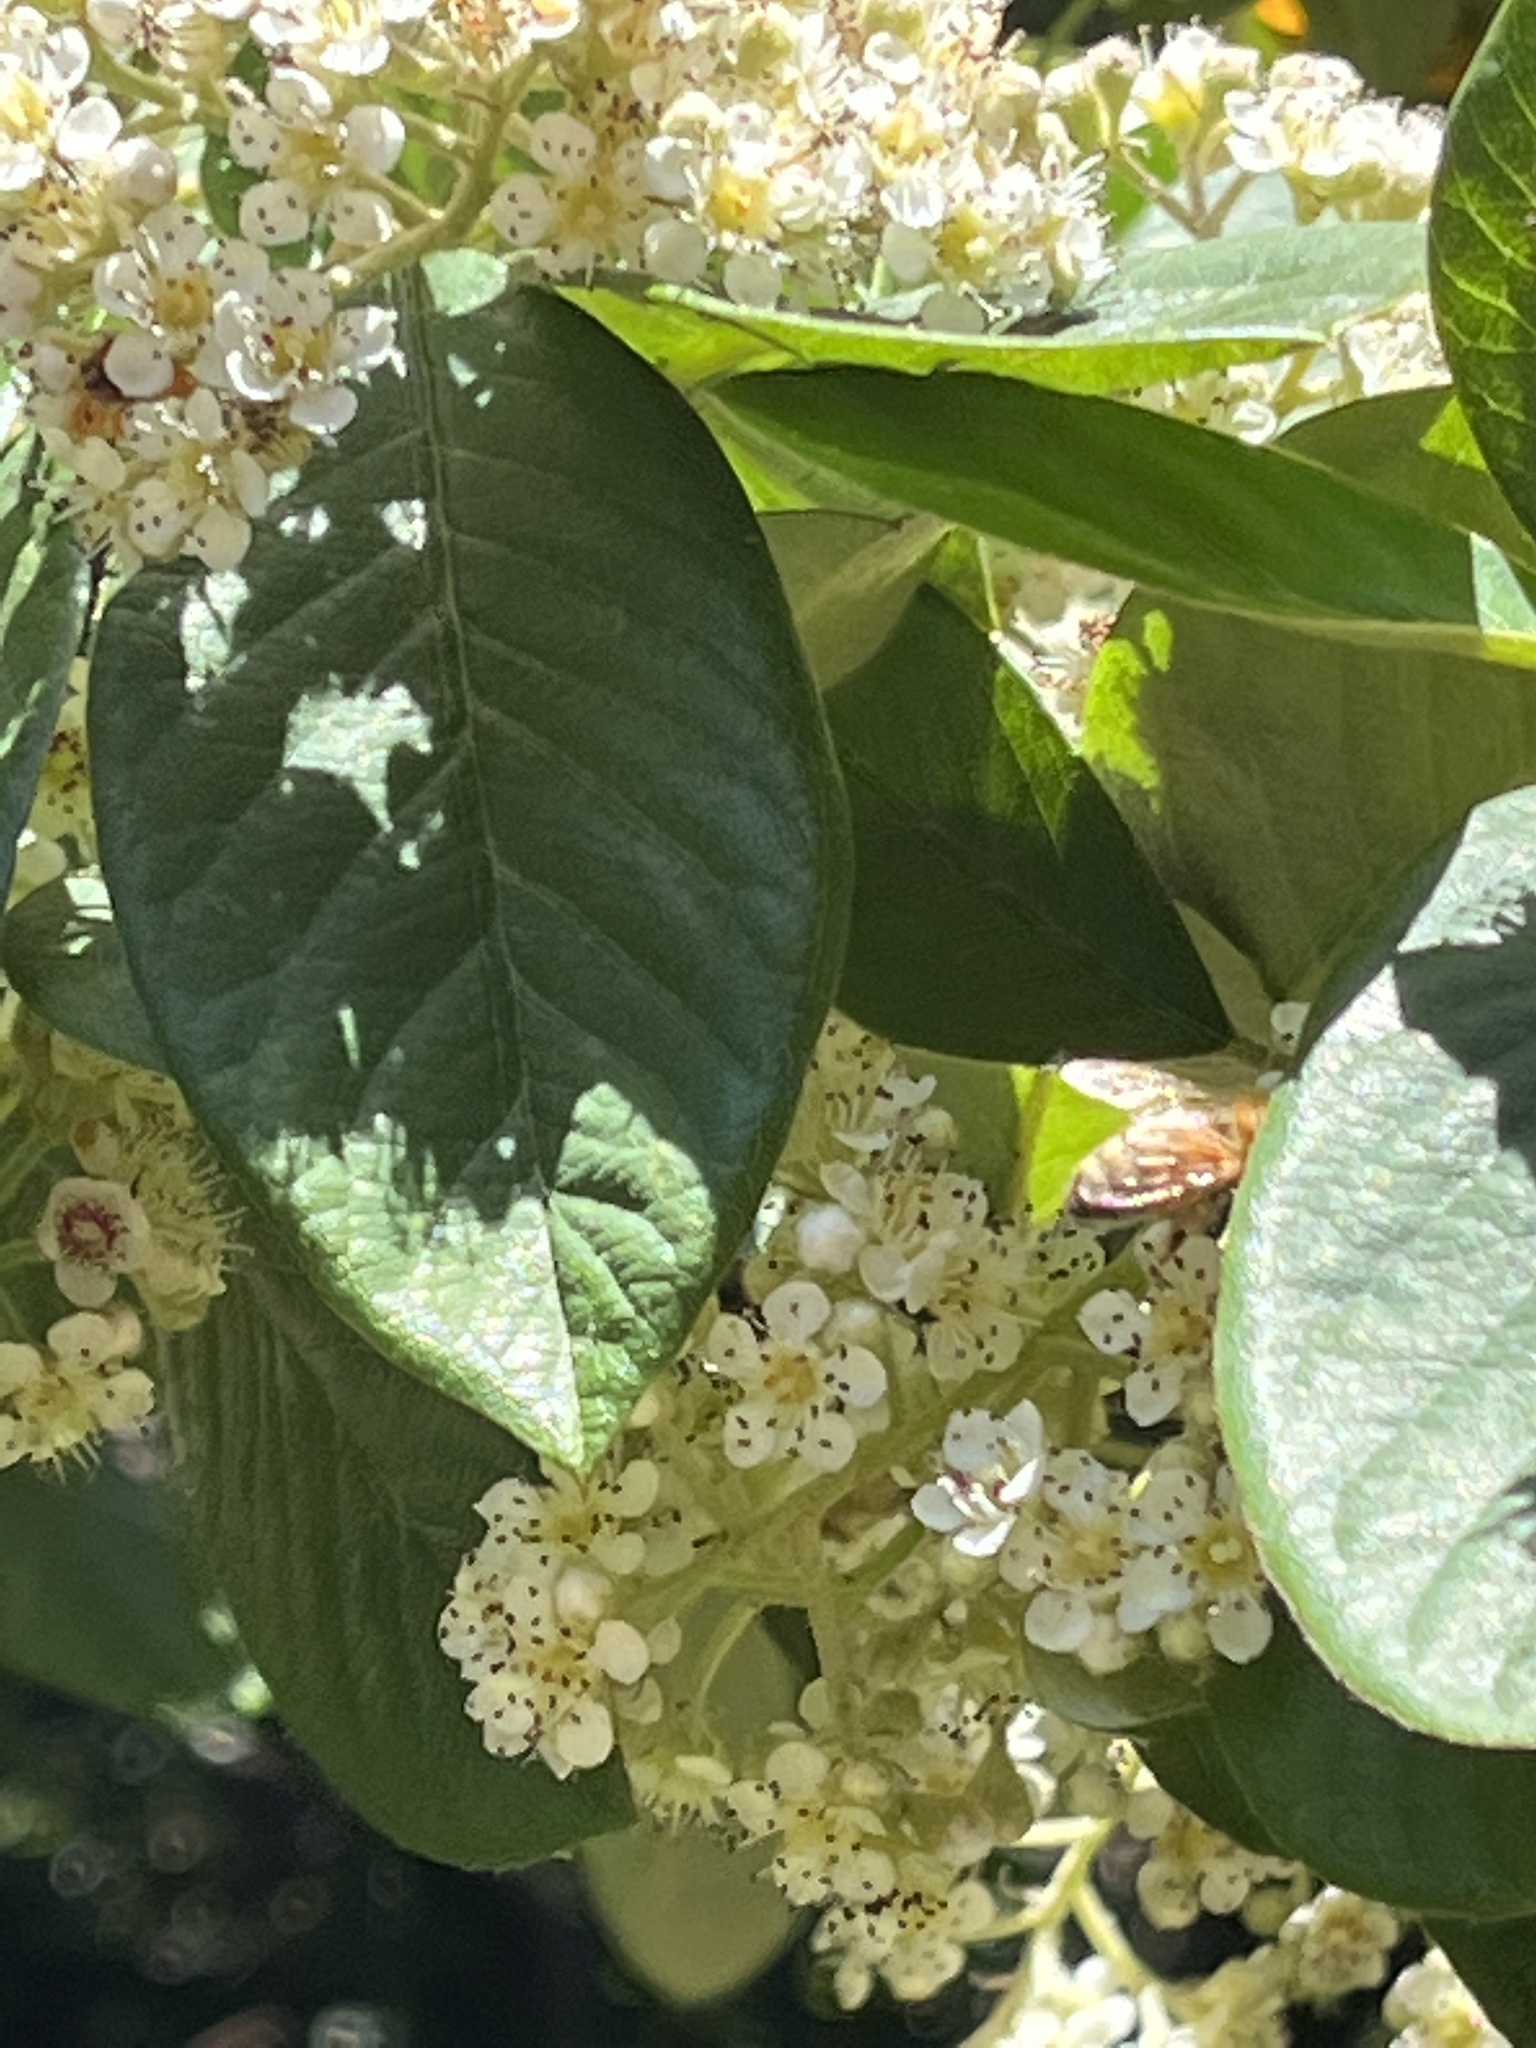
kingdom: Animalia
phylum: Arthropoda
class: Insecta
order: Hymenoptera
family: Apidae
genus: Apis
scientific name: Apis mellifera
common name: Honey bee
